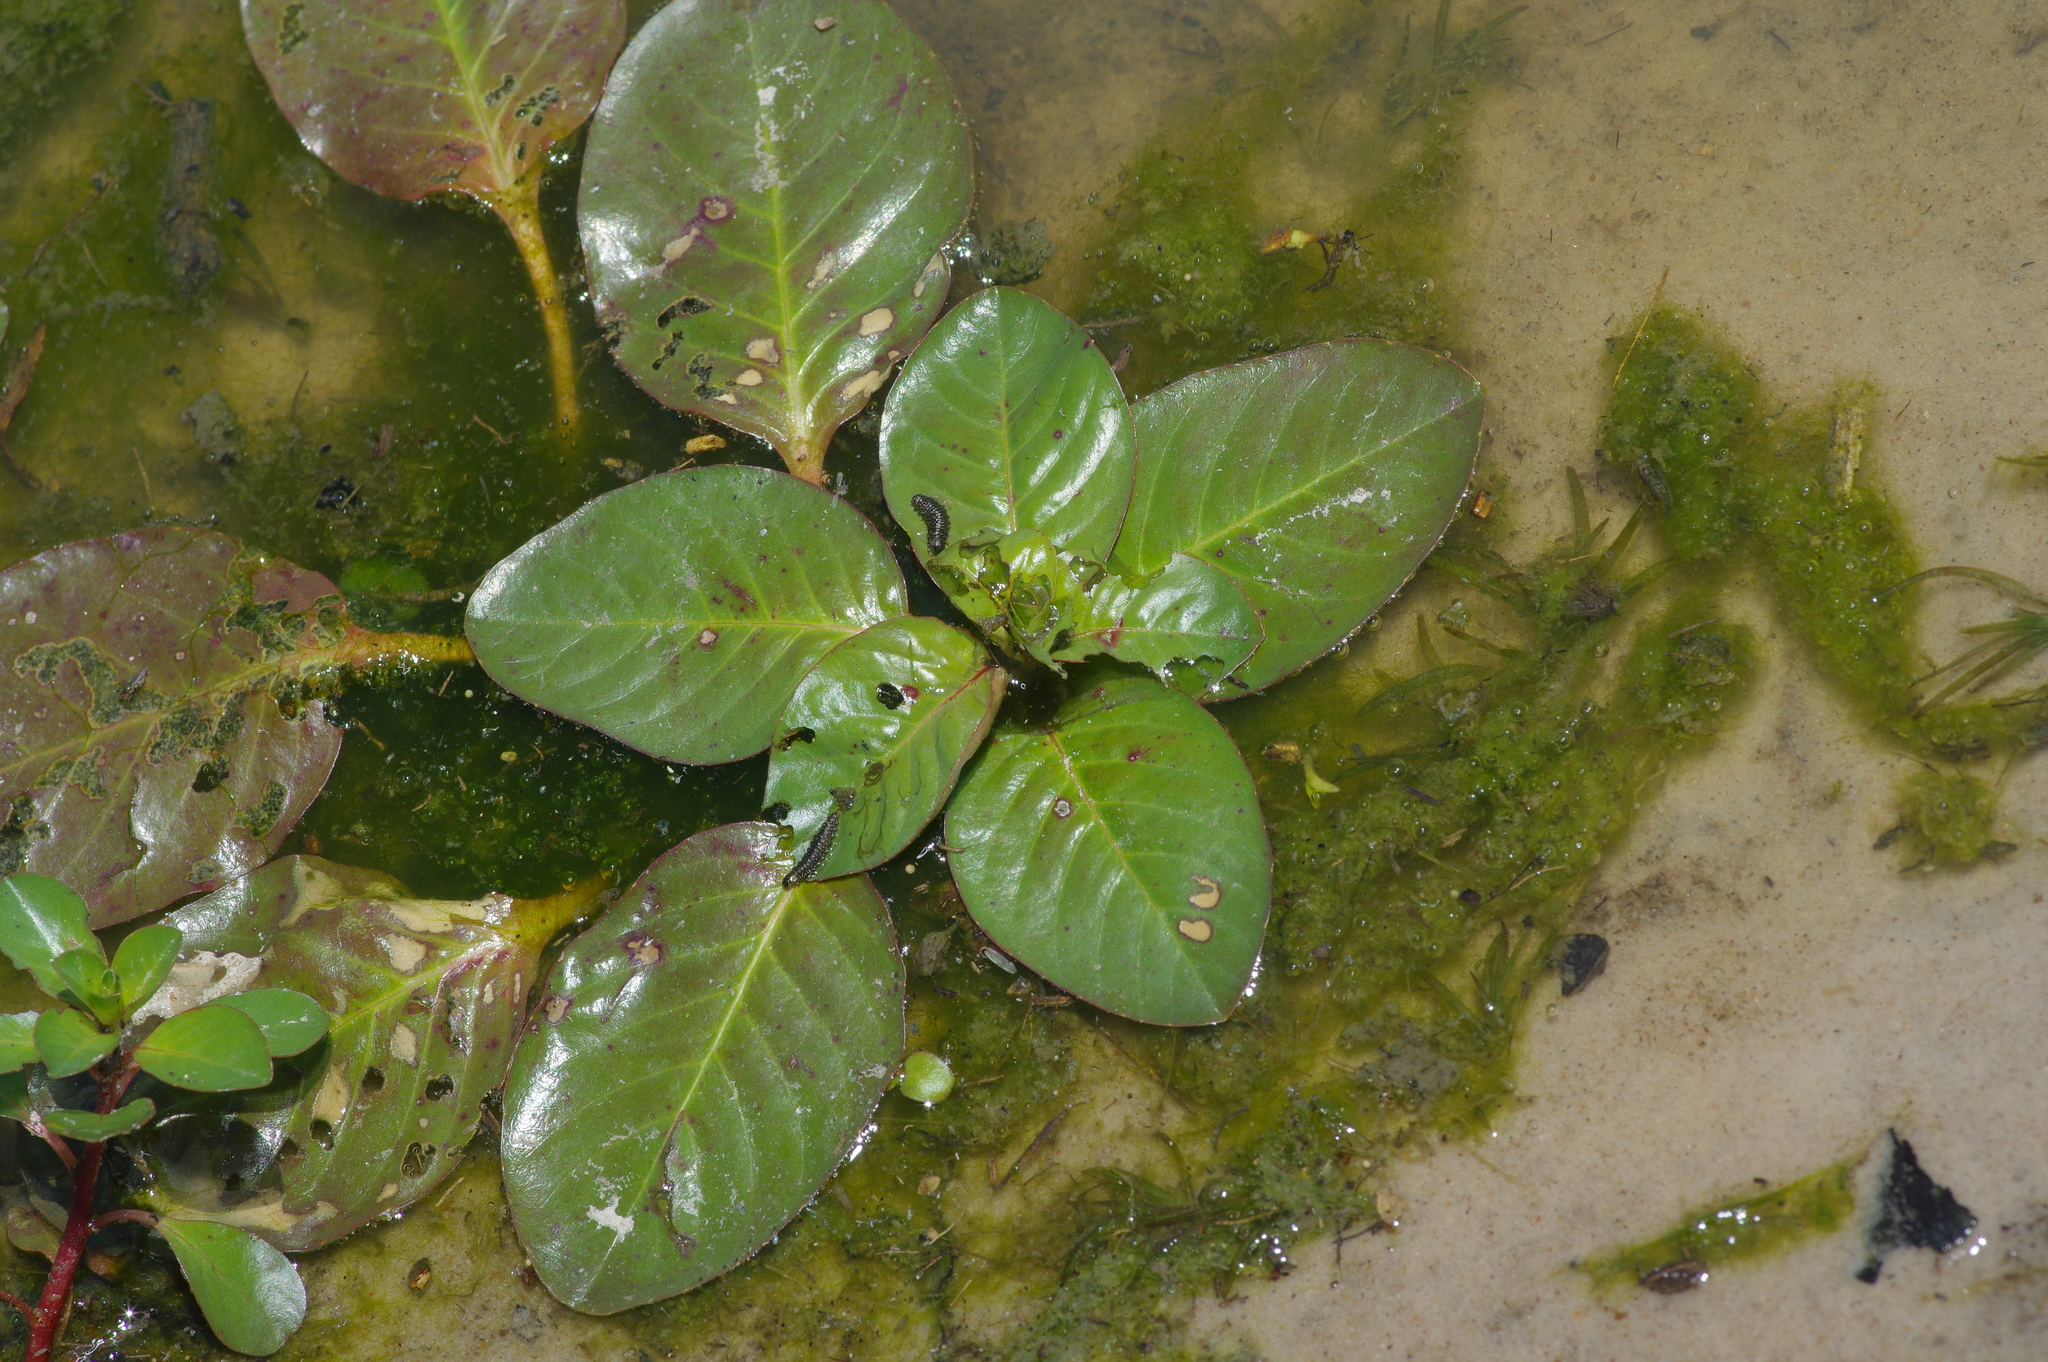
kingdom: Plantae
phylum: Tracheophyta
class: Magnoliopsida
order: Myrtales
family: Onagraceae
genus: Ludwigia
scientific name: Ludwigia peploides
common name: Floating primrose-willow
